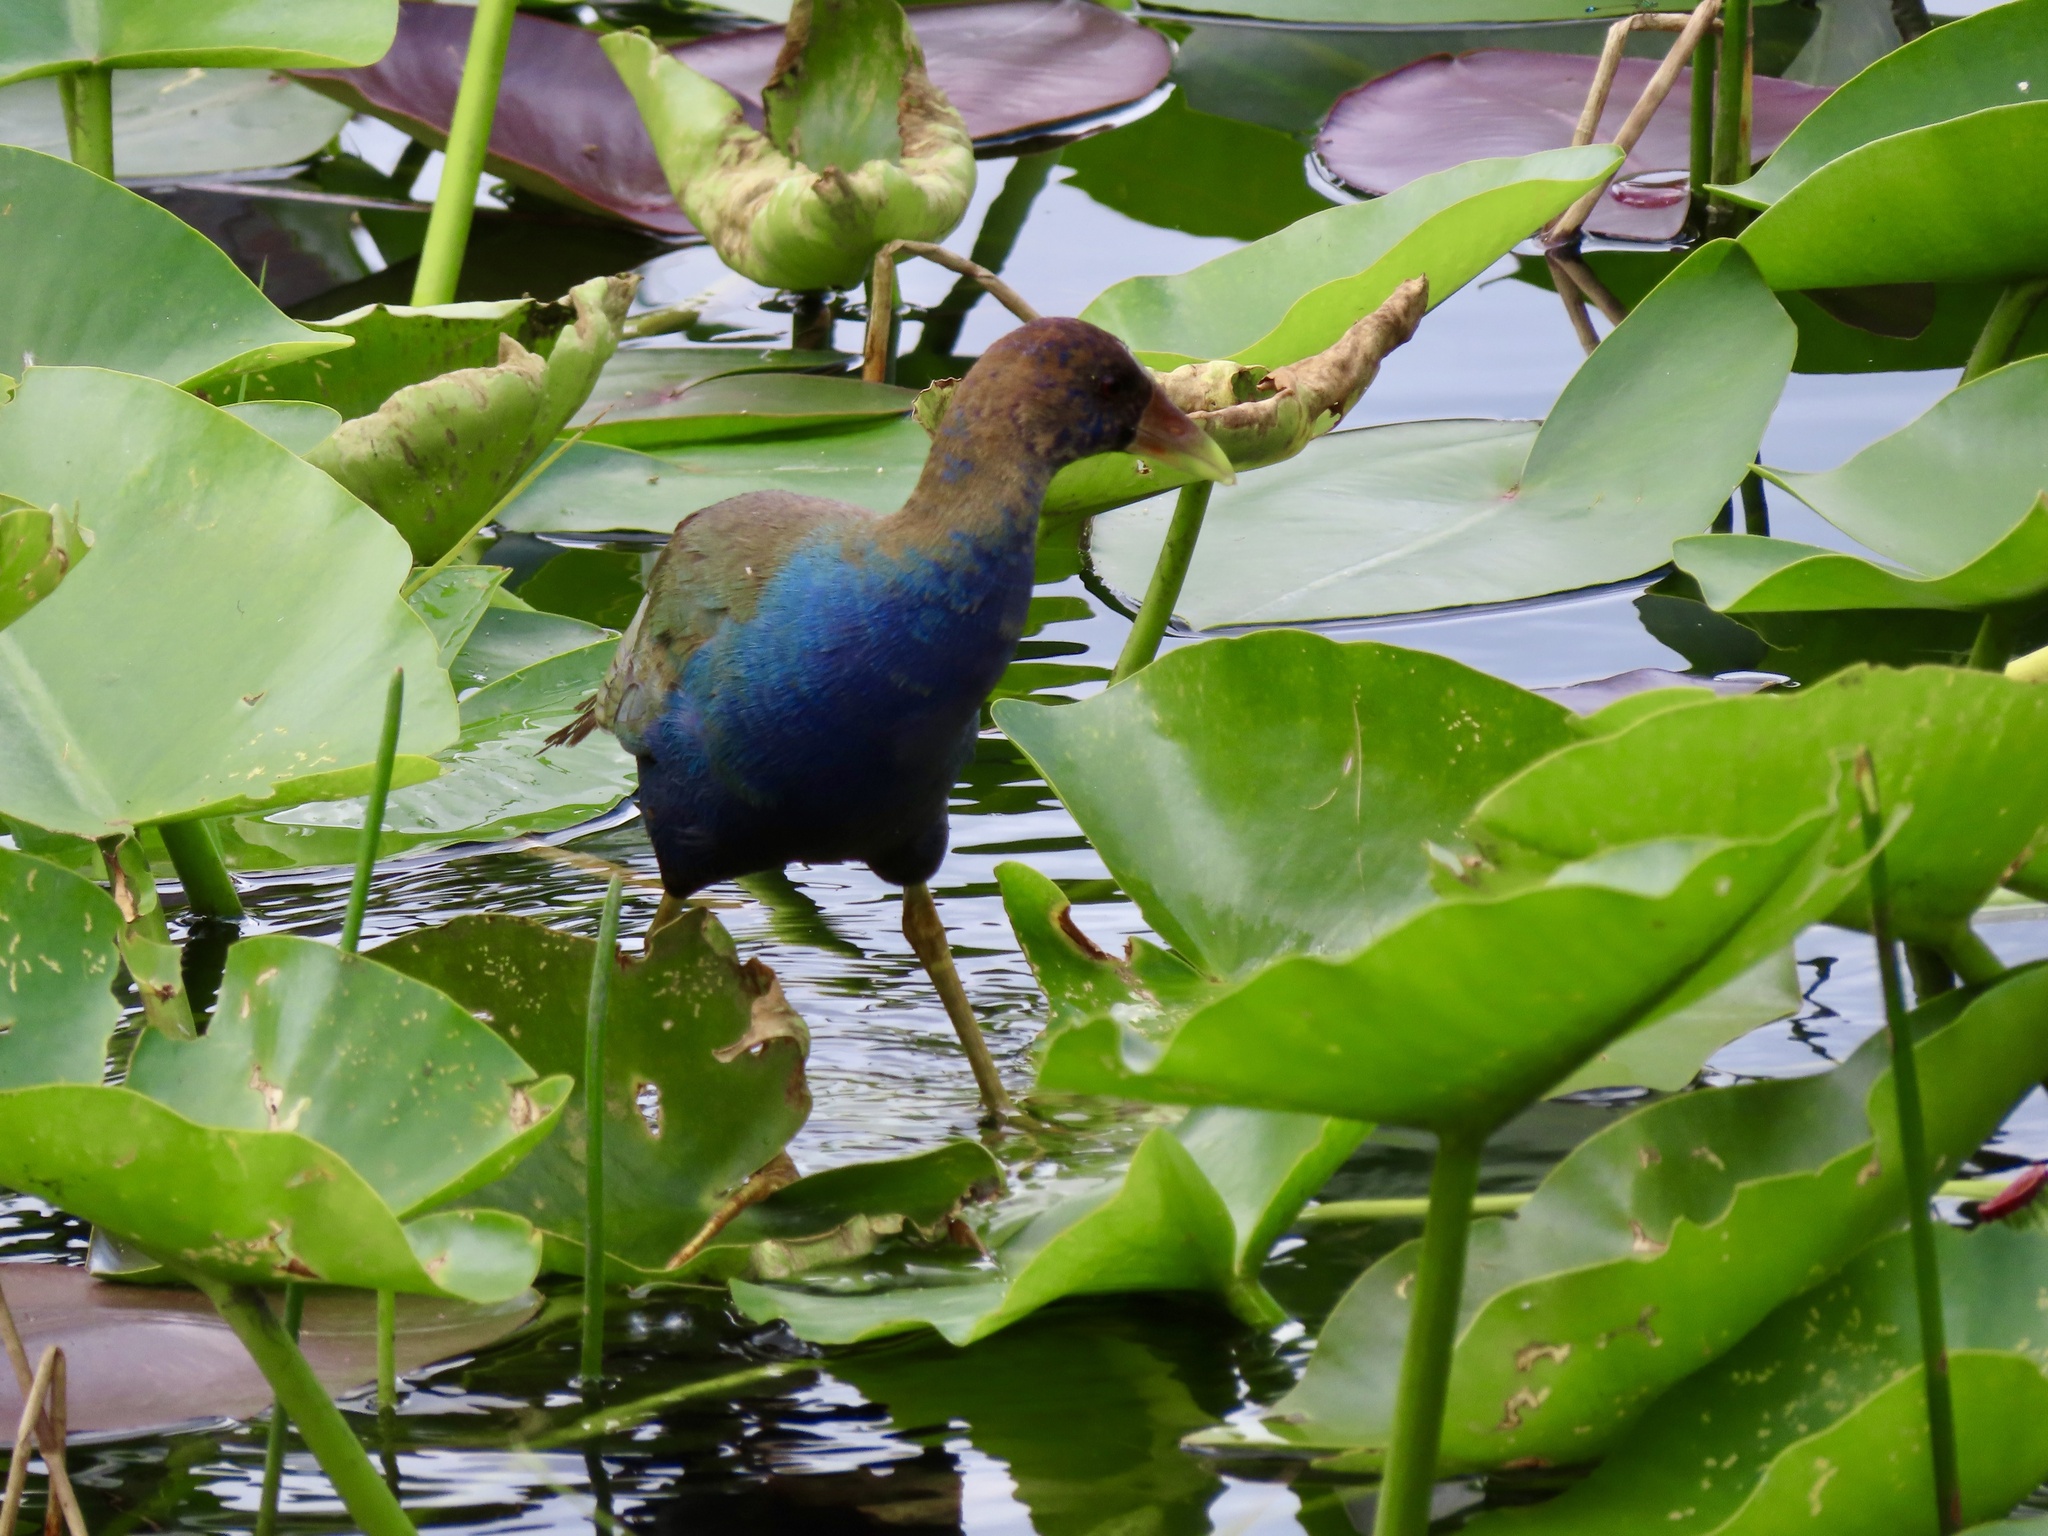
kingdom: Animalia
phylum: Chordata
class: Aves
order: Gruiformes
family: Rallidae
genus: Porphyrio
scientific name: Porphyrio martinica
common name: Purple gallinule
